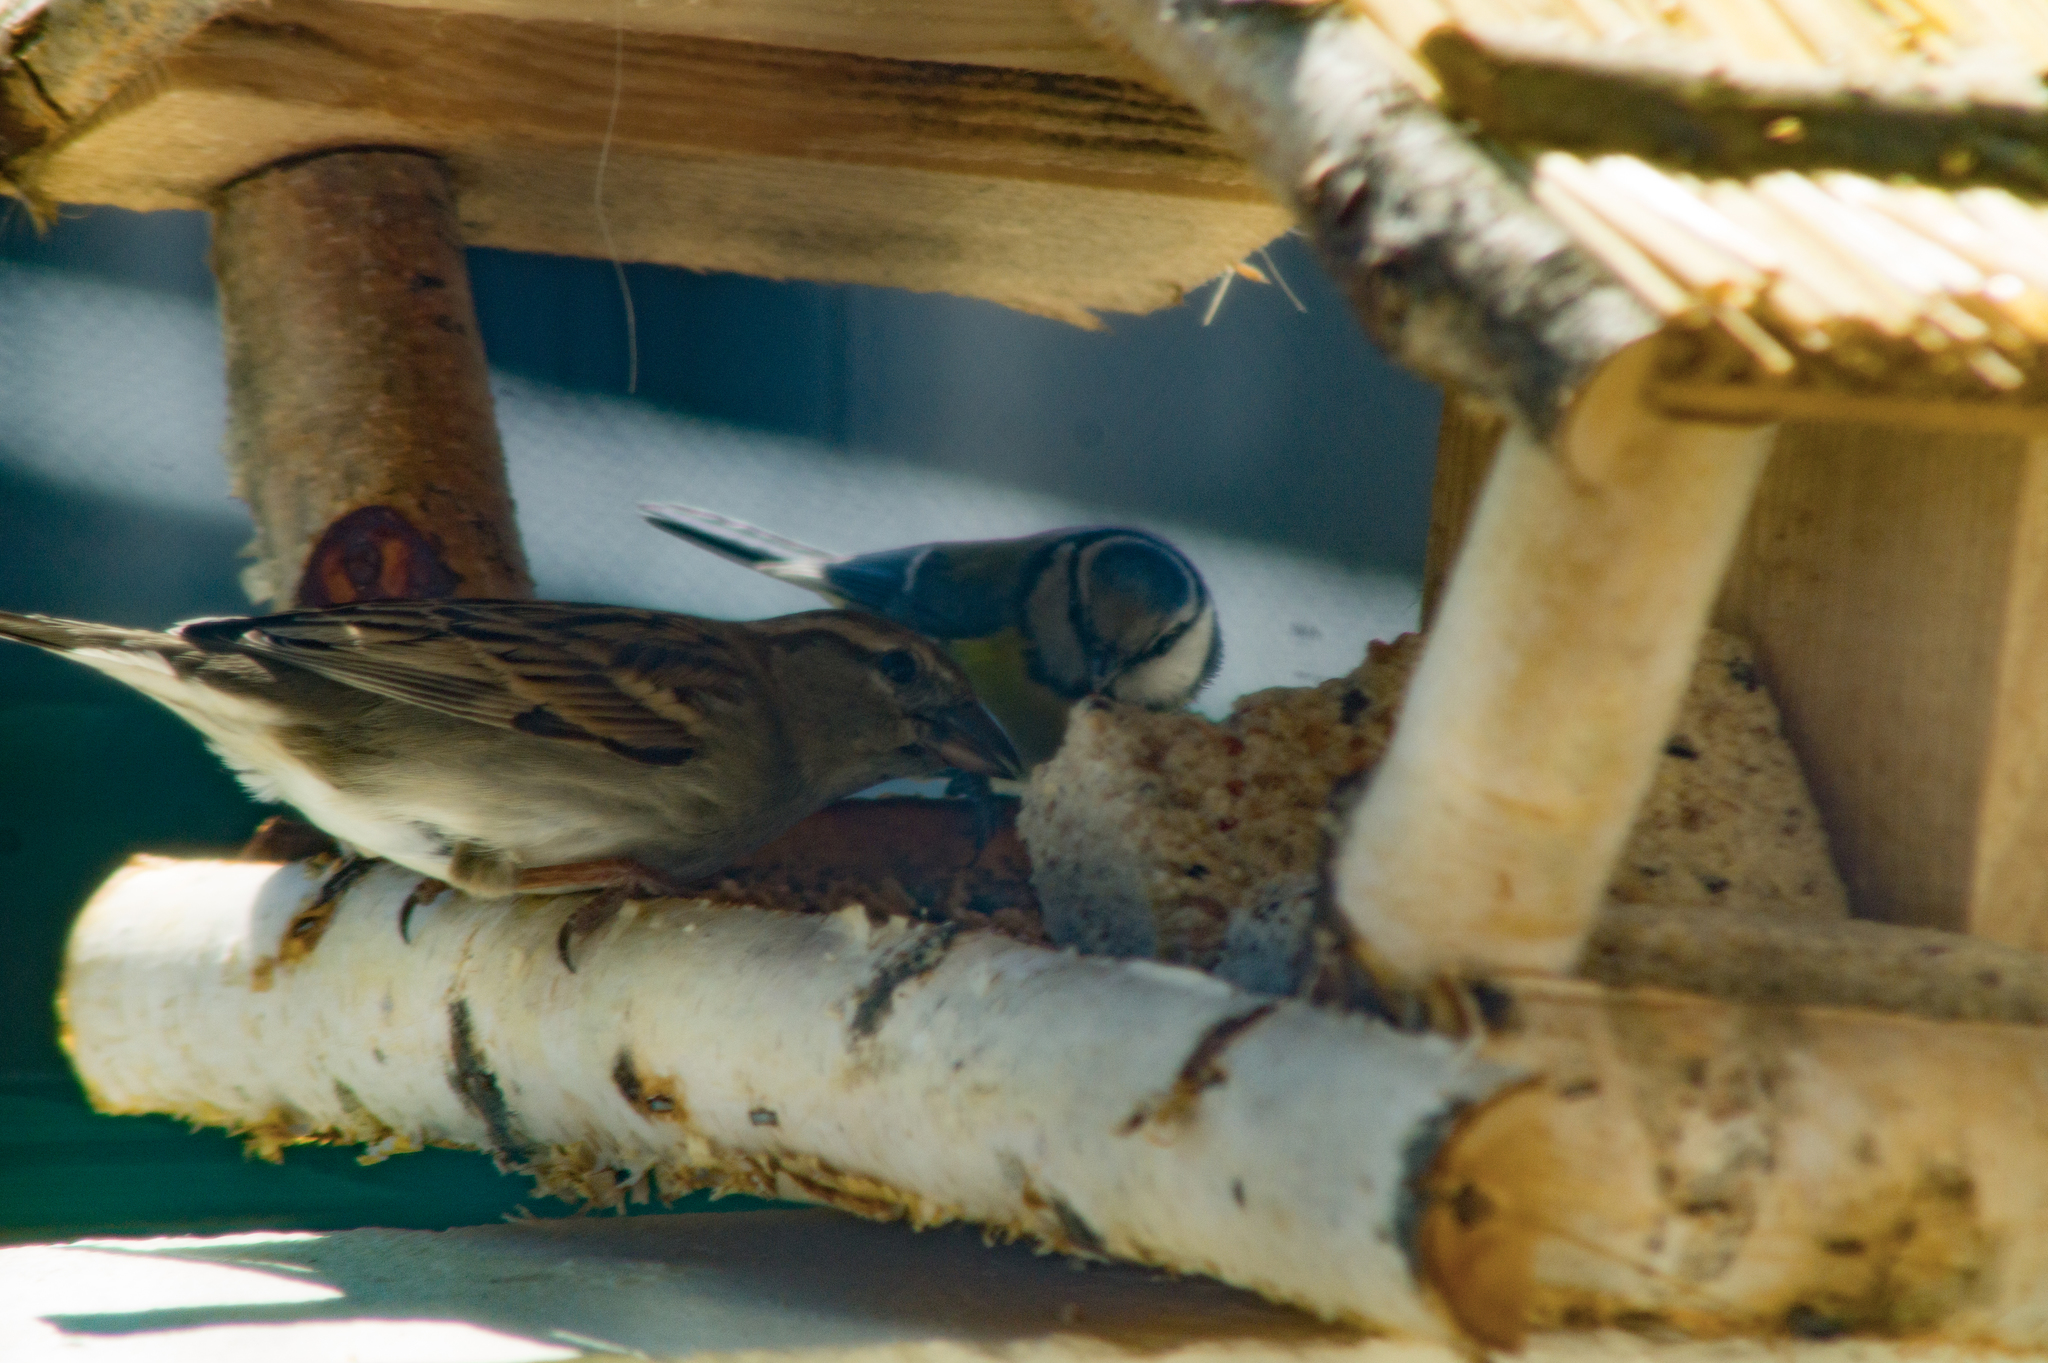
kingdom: Animalia
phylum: Chordata
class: Aves
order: Passeriformes
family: Passeridae
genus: Passer
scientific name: Passer domesticus
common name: House sparrow
